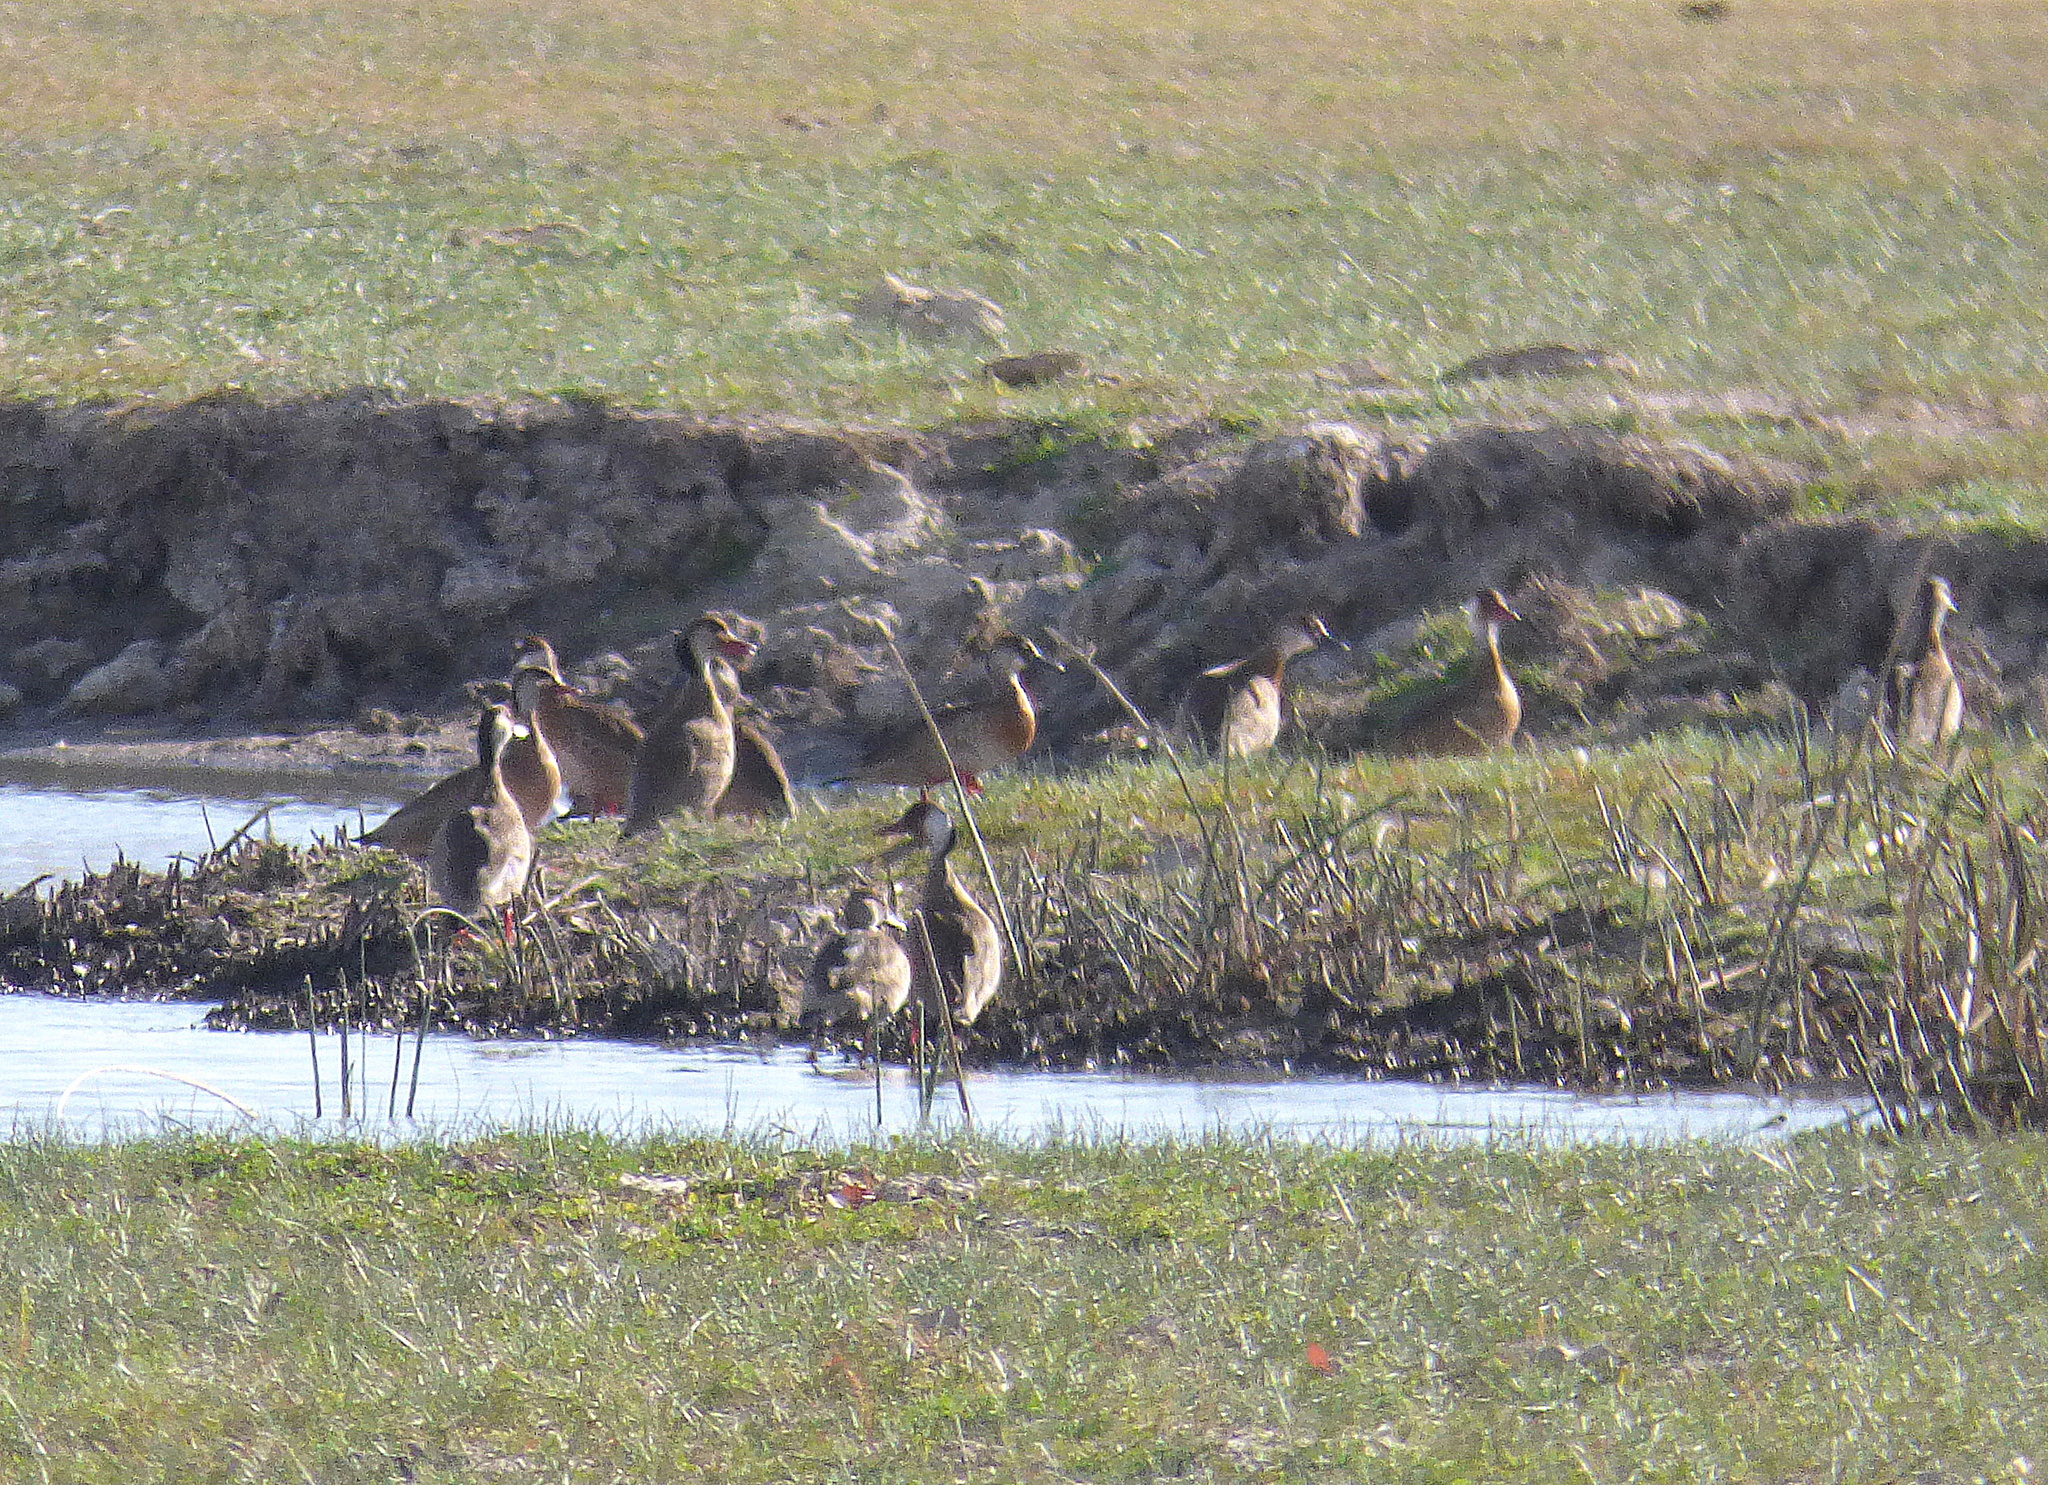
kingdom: Animalia
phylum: Chordata
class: Aves
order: Anseriformes
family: Anatidae
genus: Amazonetta
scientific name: Amazonetta brasiliensis
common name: Brazilian teal
